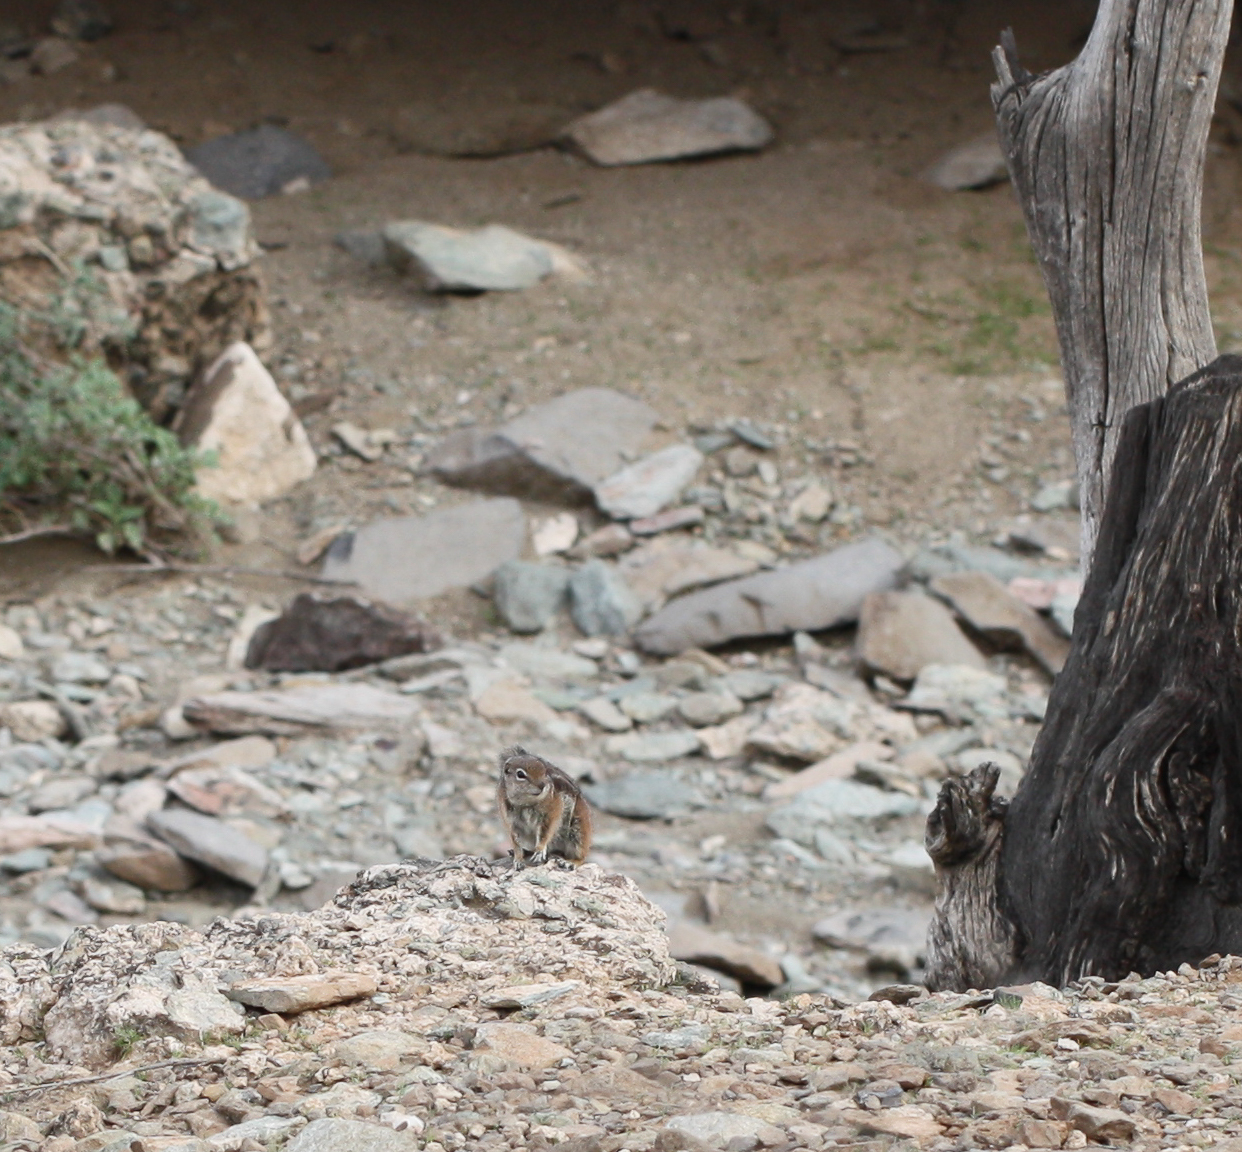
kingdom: Animalia
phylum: Chordata
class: Mammalia
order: Rodentia
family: Sciuridae
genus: Ammospermophilus
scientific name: Ammospermophilus harrisii
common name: Harris's antelope squirrel
